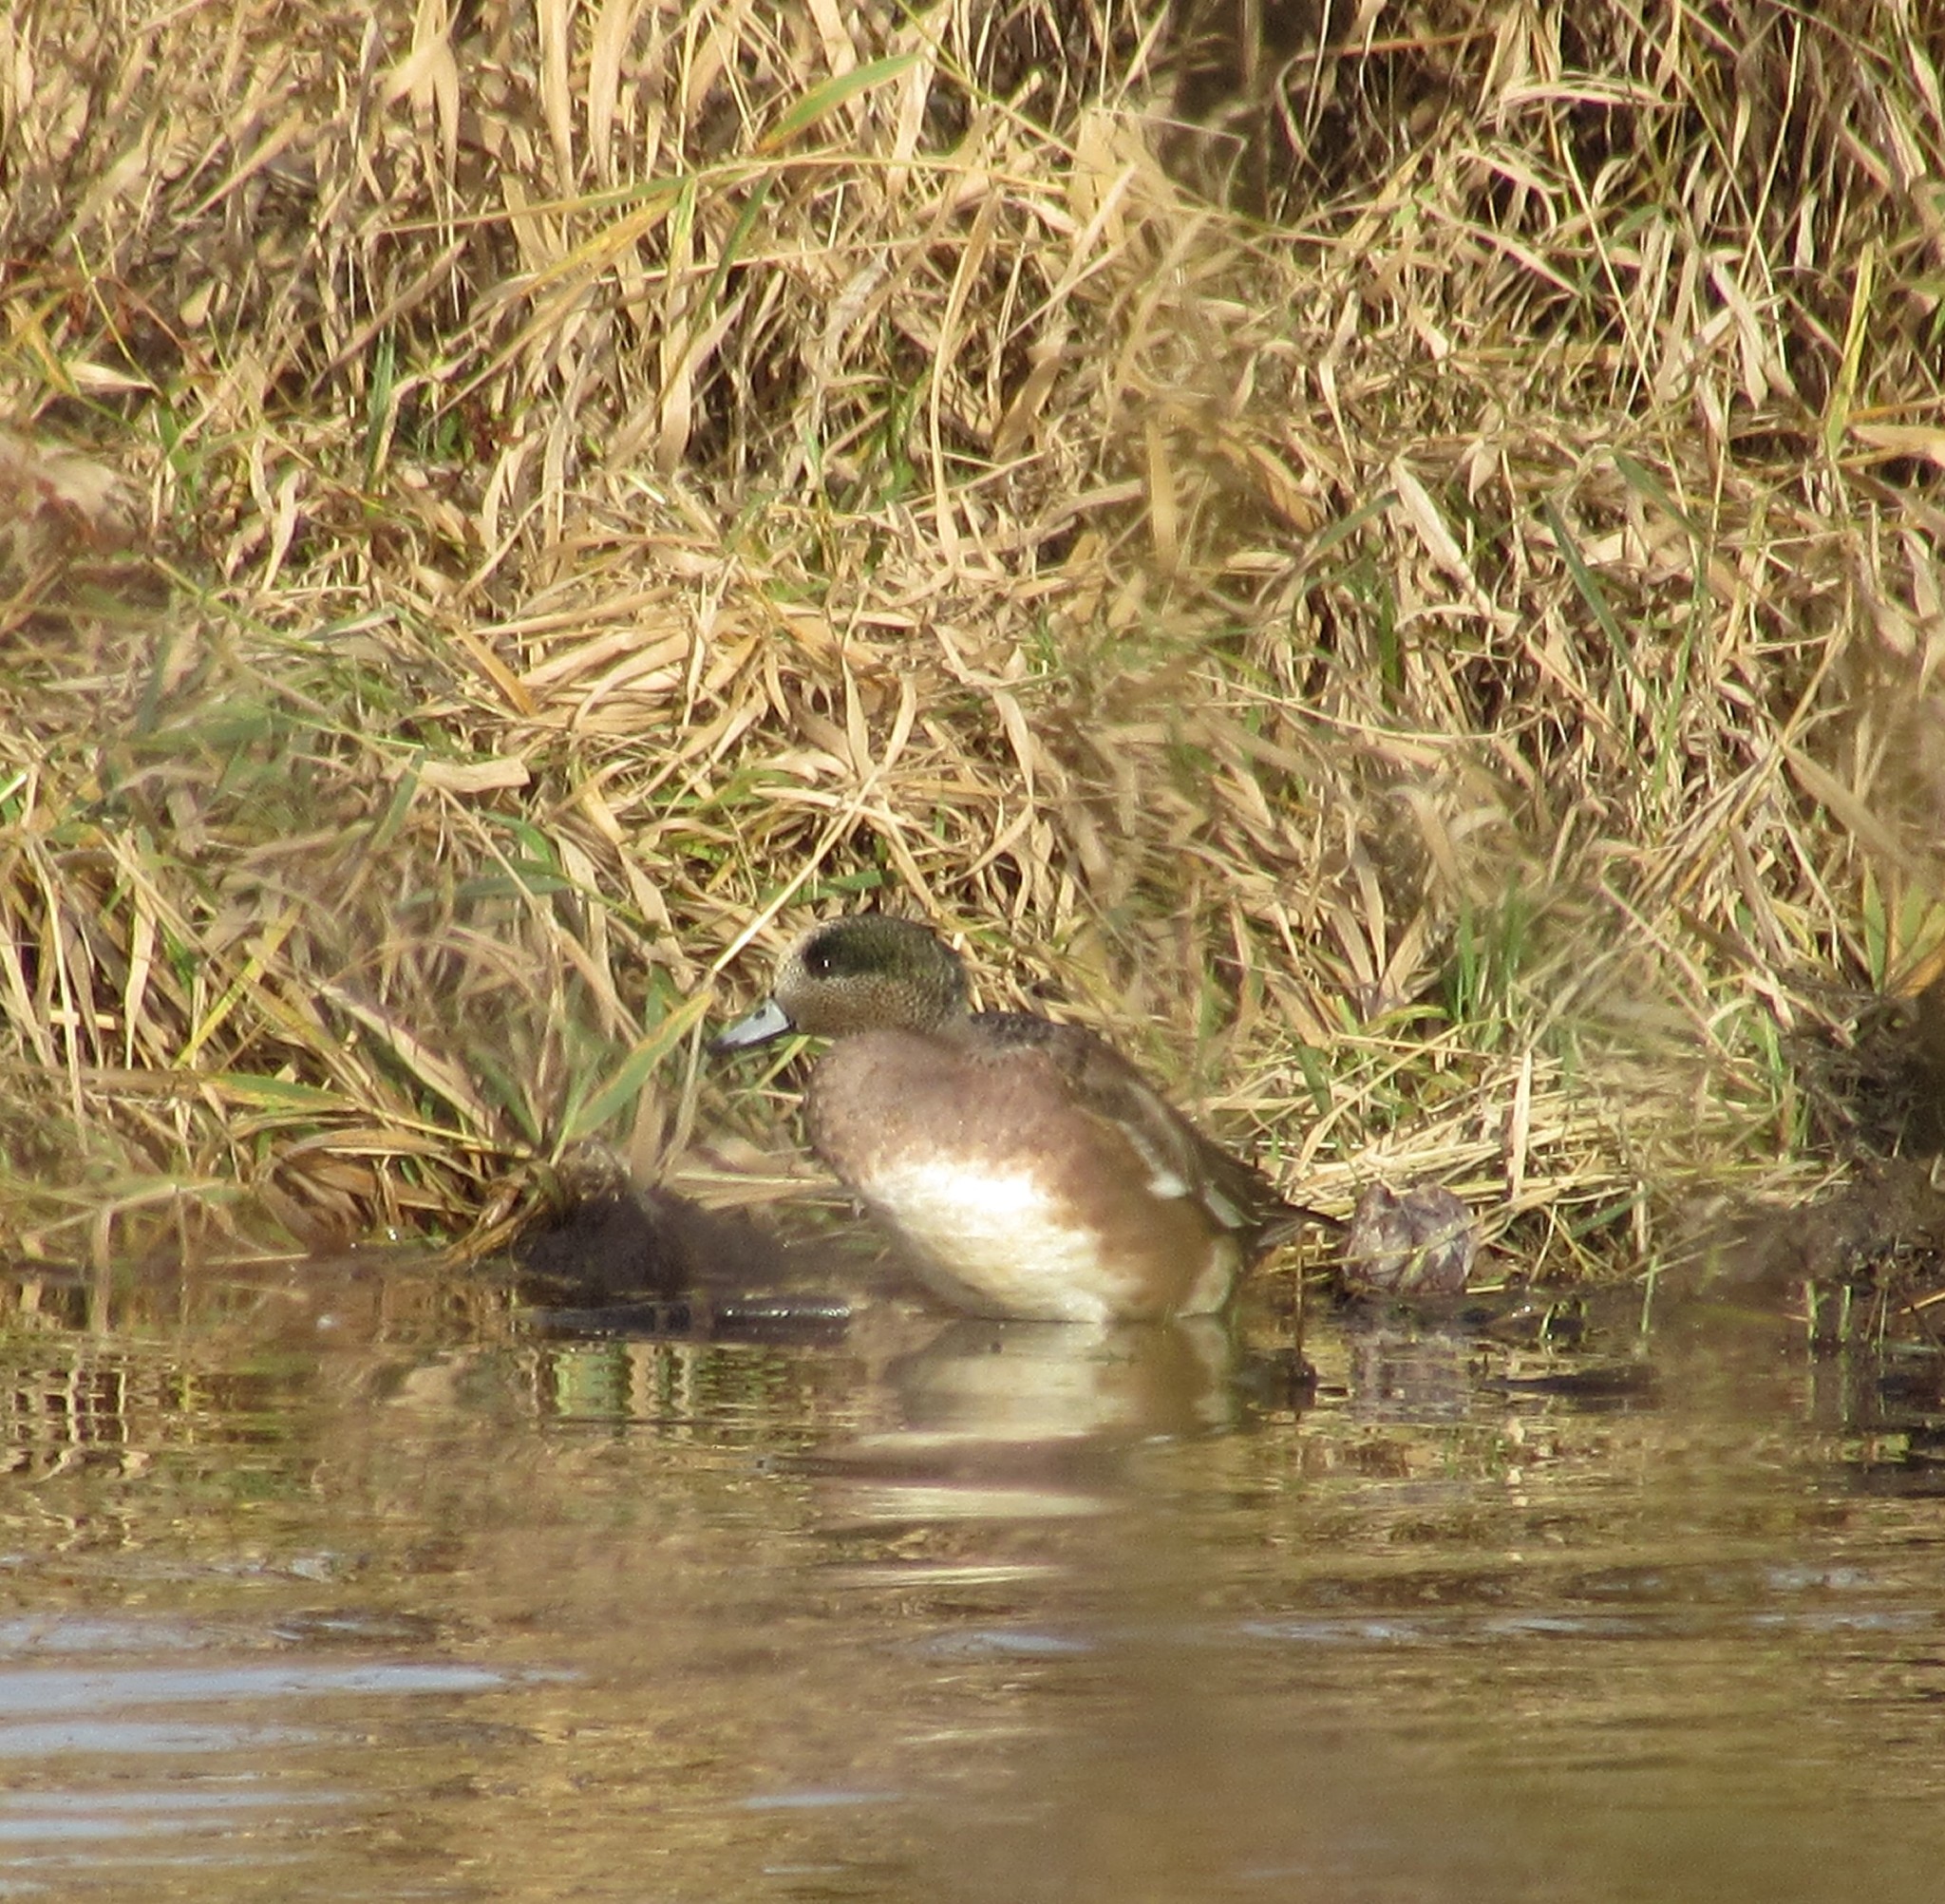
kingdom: Animalia
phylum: Chordata
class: Aves
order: Anseriformes
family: Anatidae
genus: Mareca
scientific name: Mareca americana
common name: American wigeon
